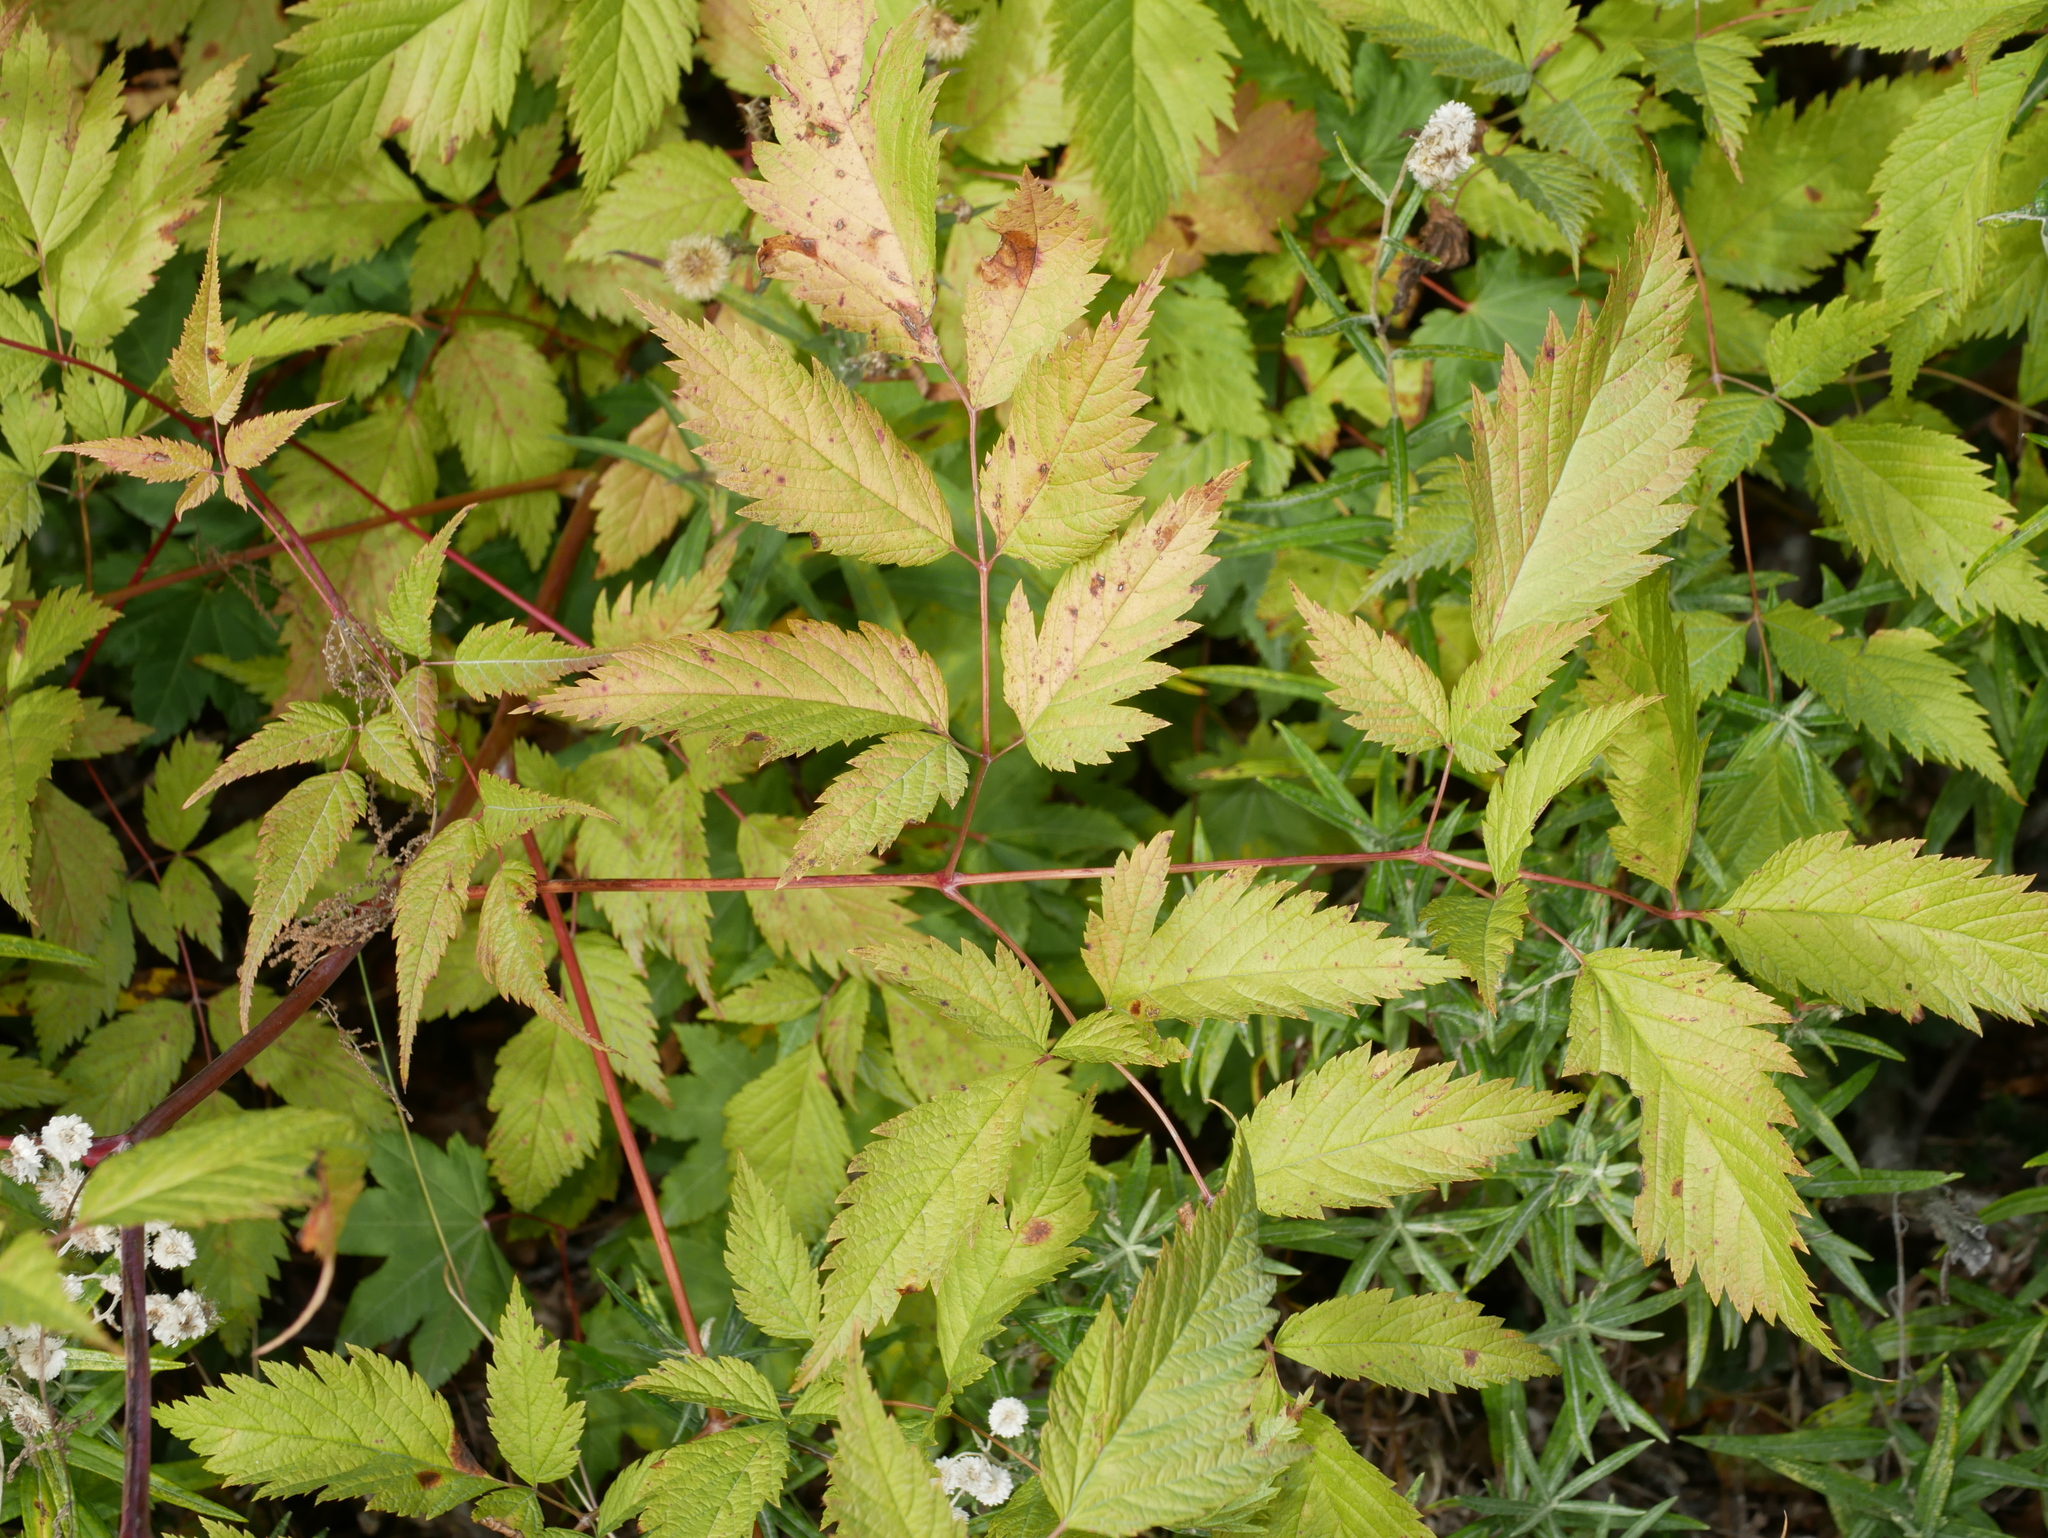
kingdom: Plantae
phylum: Tracheophyta
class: Magnoliopsida
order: Rosales
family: Rosaceae
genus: Aruncus
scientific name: Aruncus dioicus
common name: Buck's-beard
